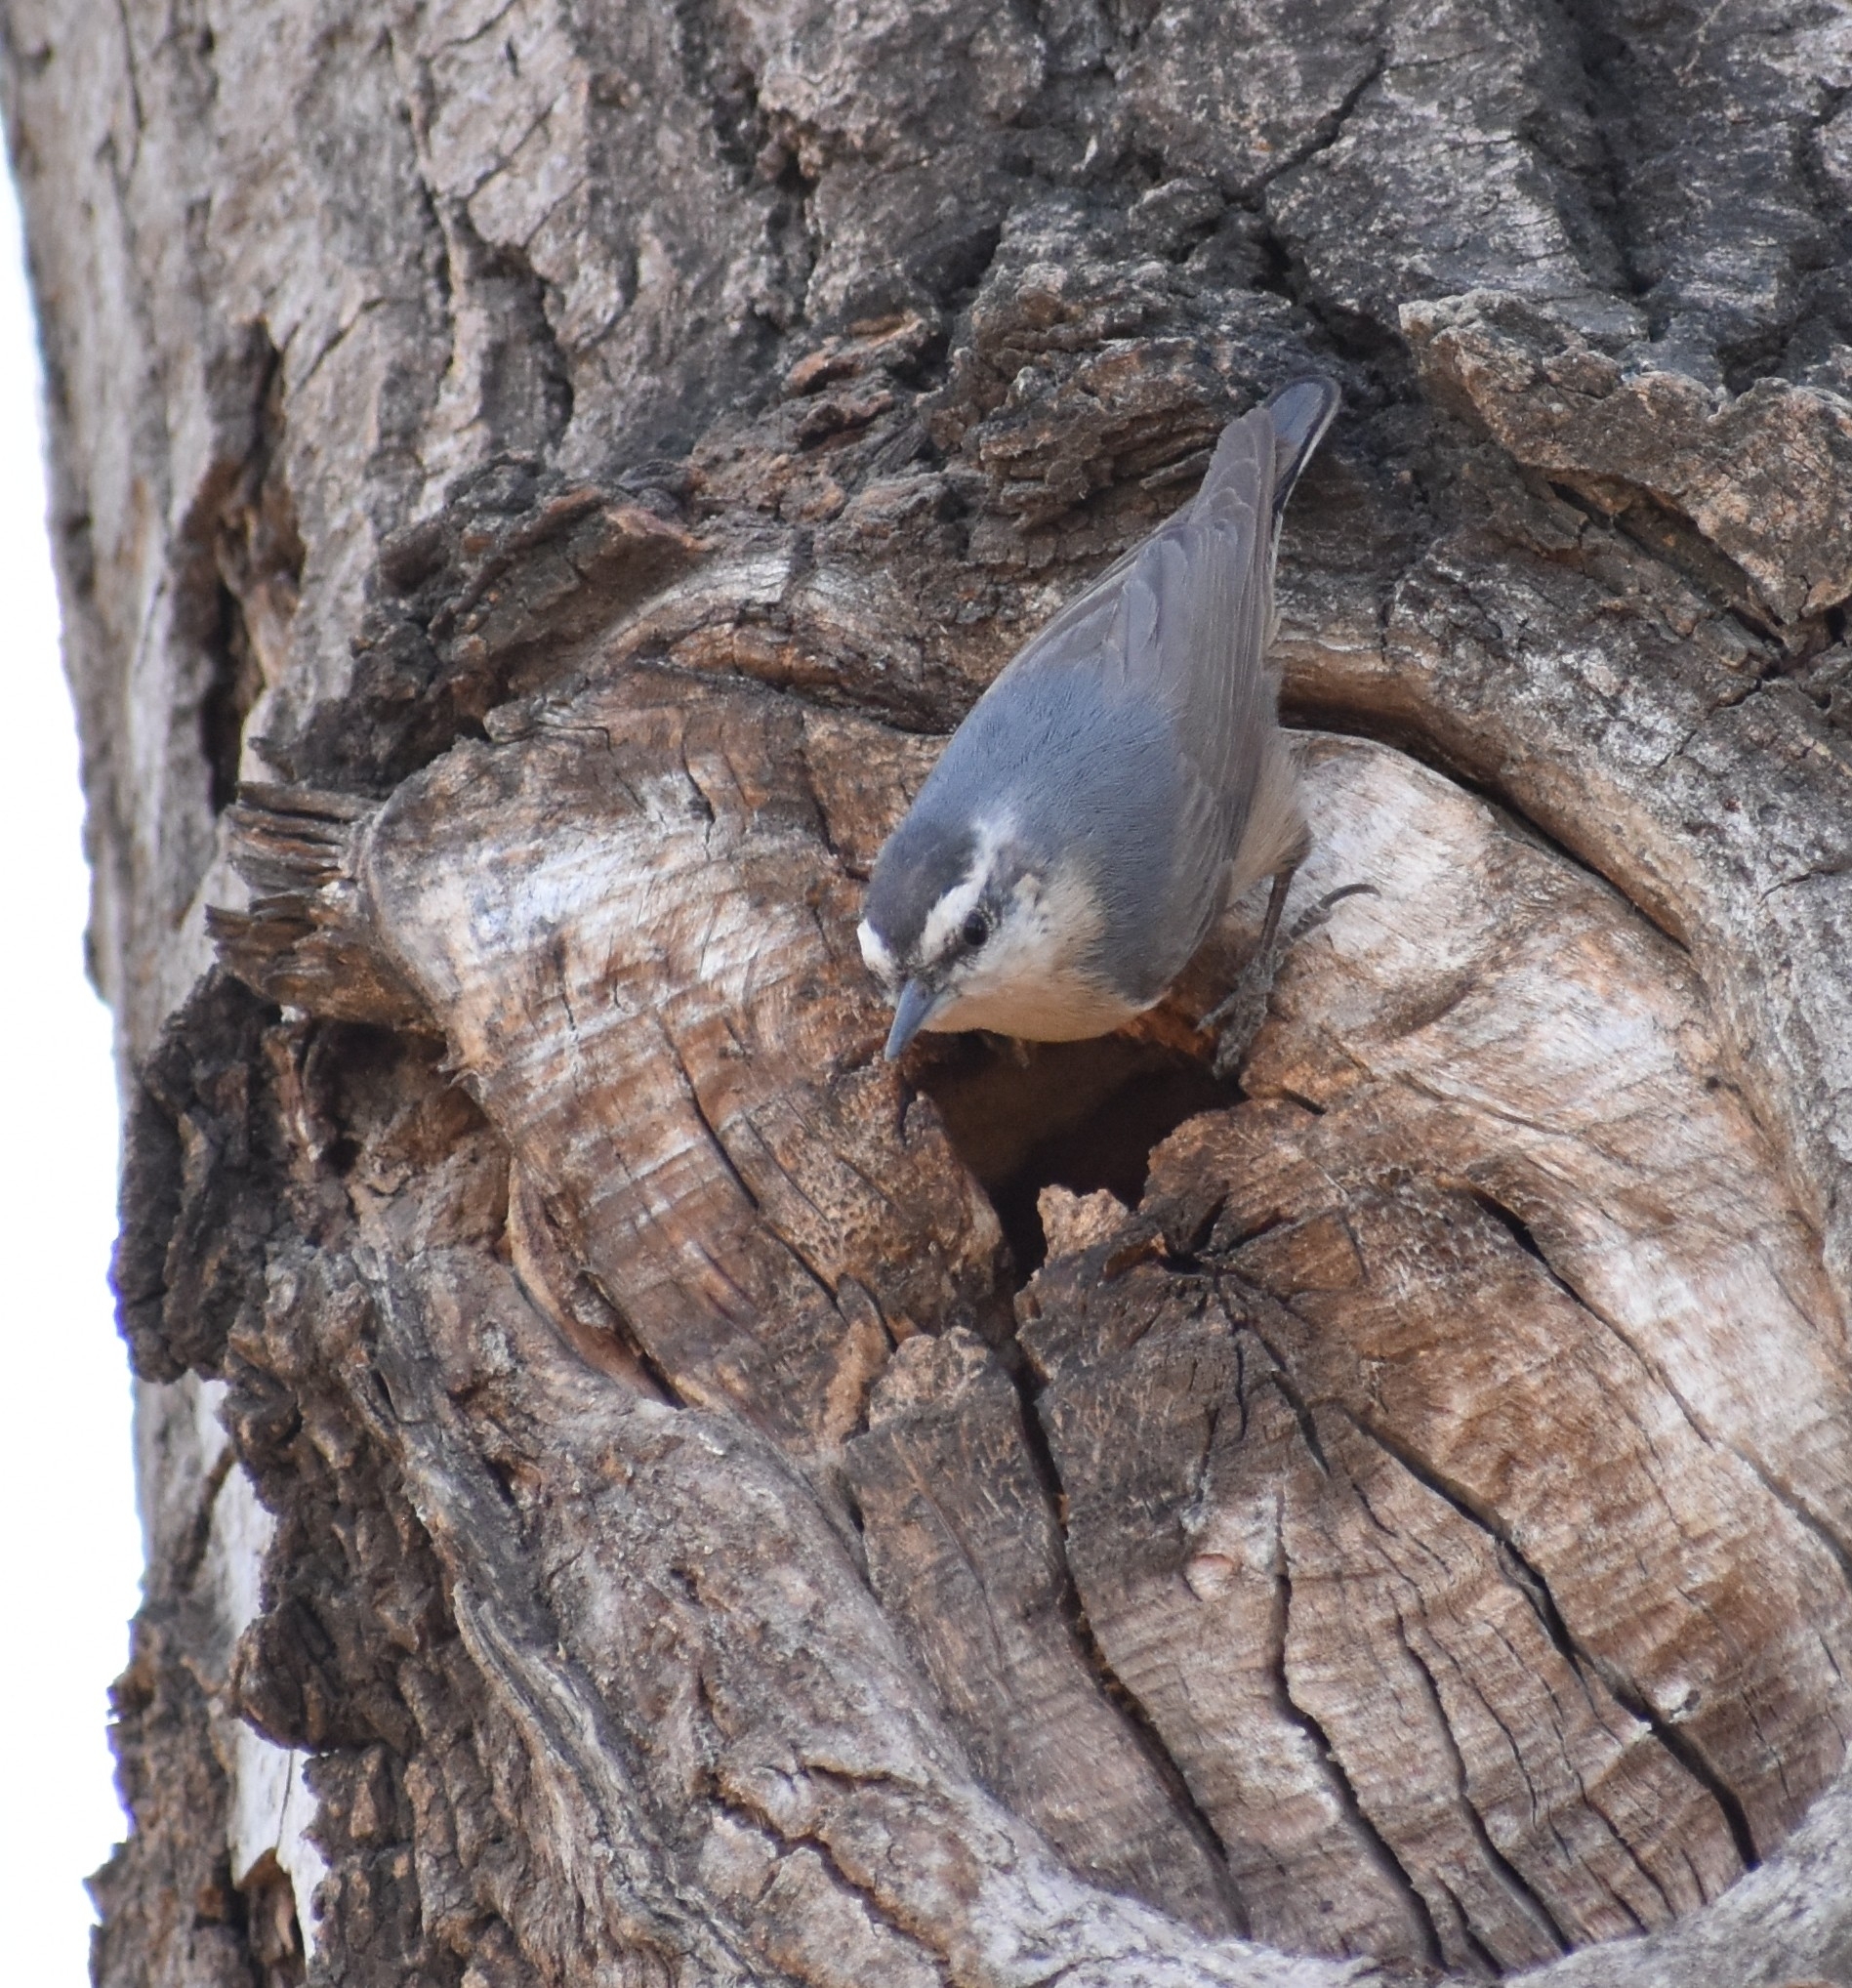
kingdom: Animalia
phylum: Chordata
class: Aves
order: Passeriformes
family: Sittidae
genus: Sitta
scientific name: Sitta villosa
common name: Chinese nuthatch
